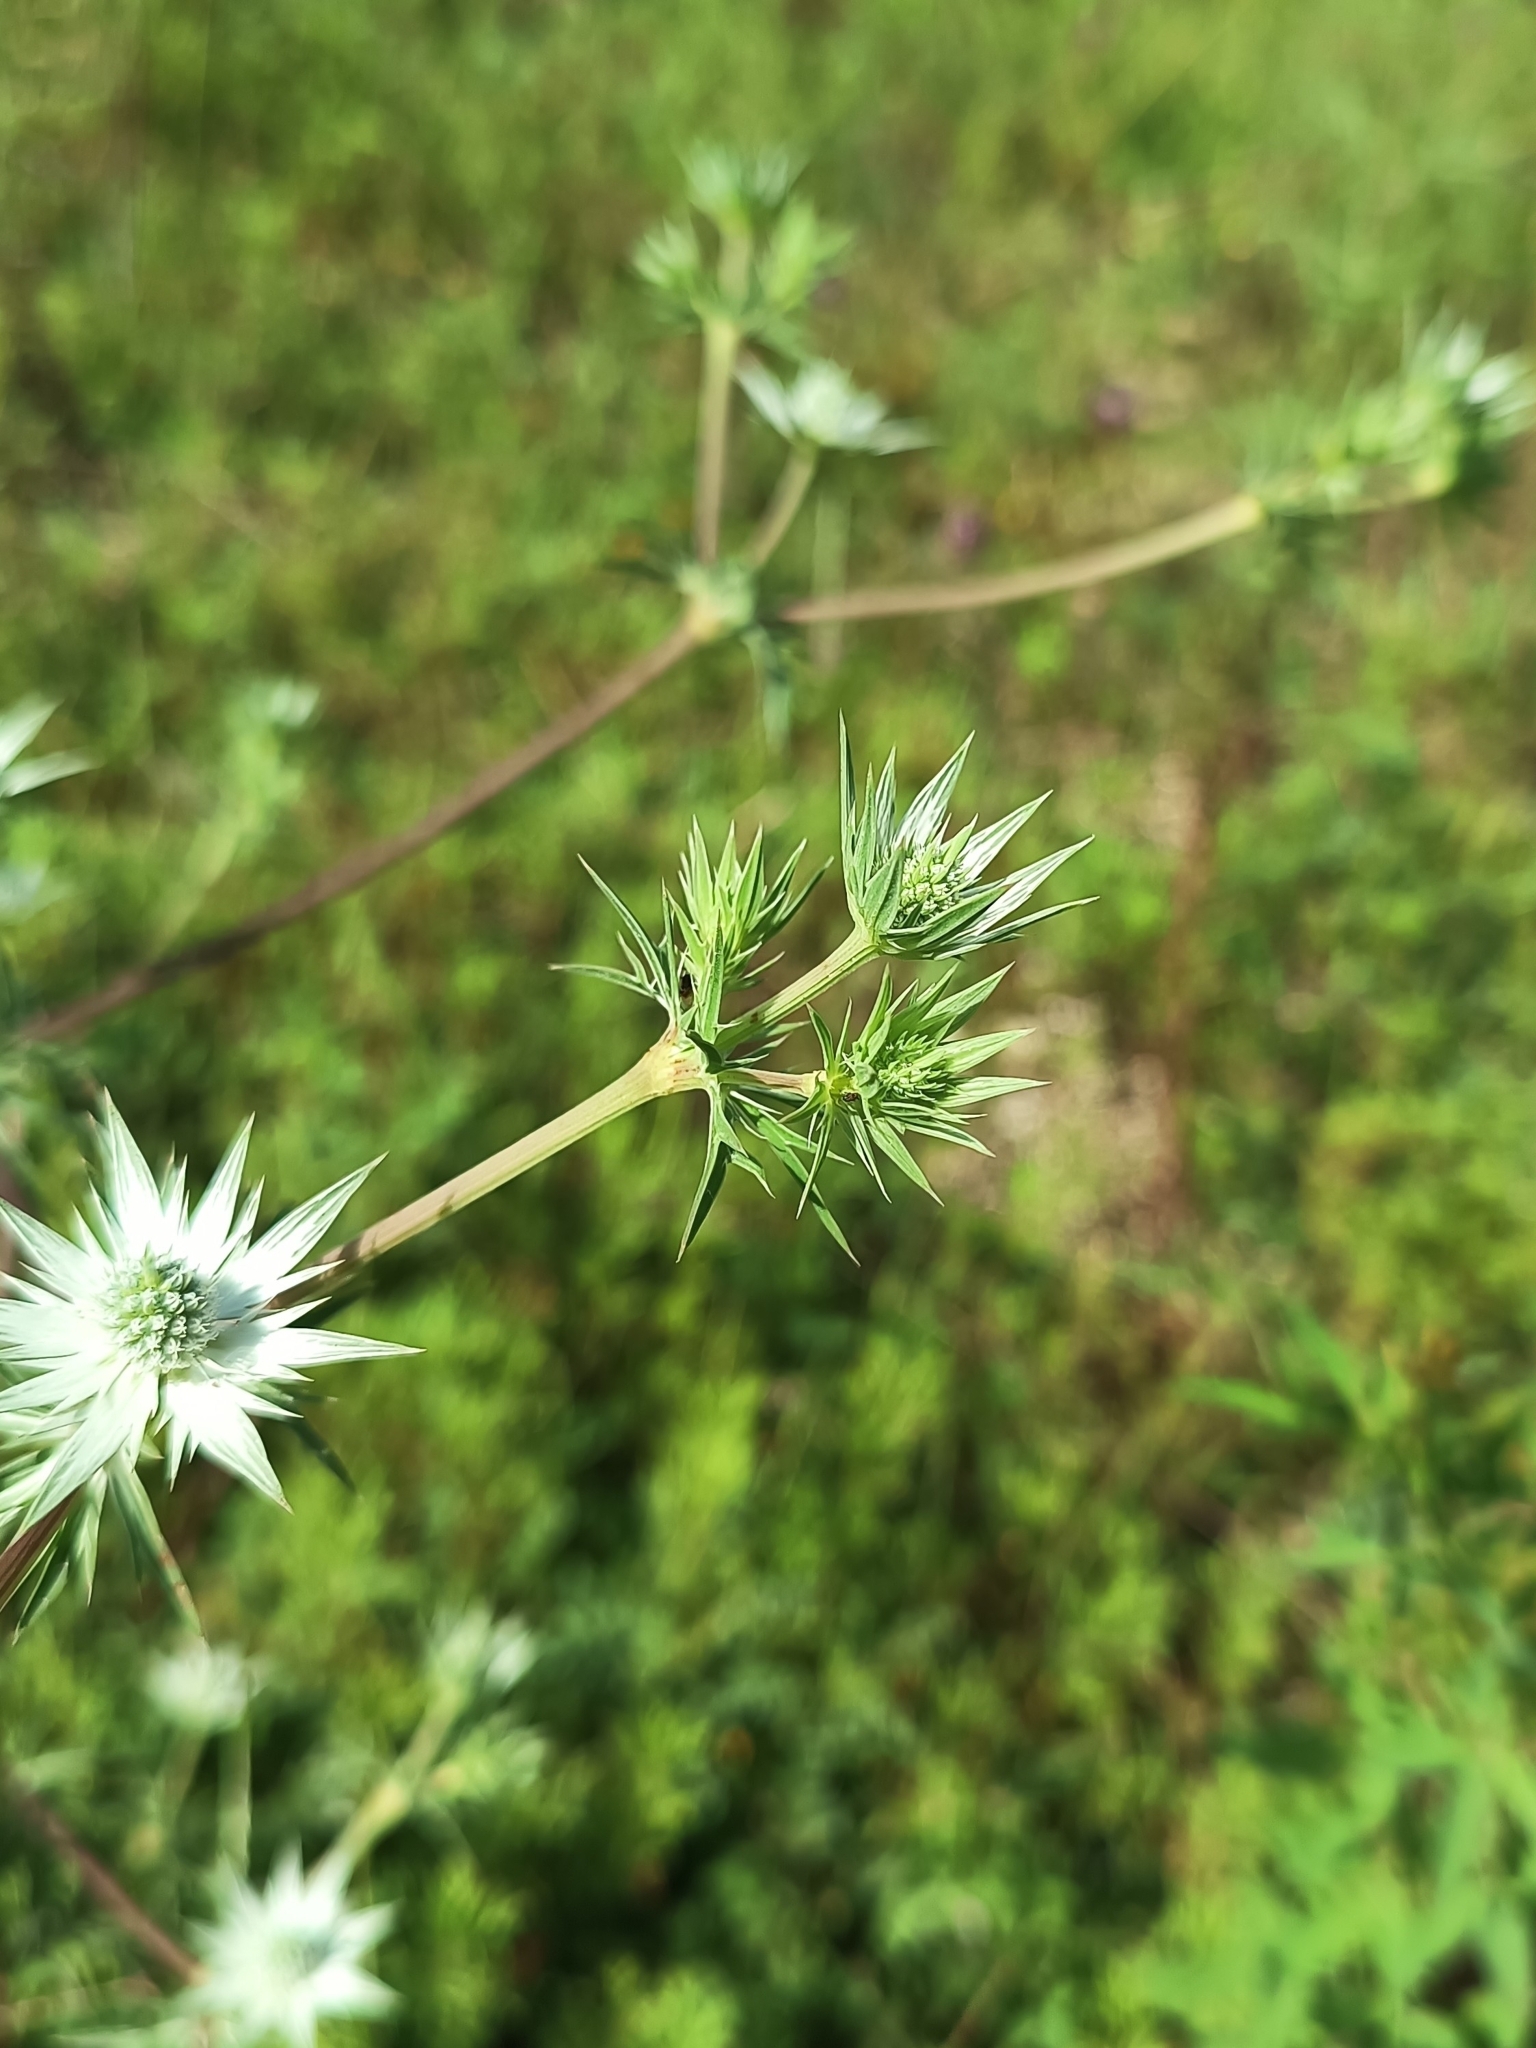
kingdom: Plantae
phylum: Tracheophyta
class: Magnoliopsida
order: Apiales
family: Apiaceae
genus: Eryngium
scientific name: Eryngium heterophyllum
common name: Mexican thistle
